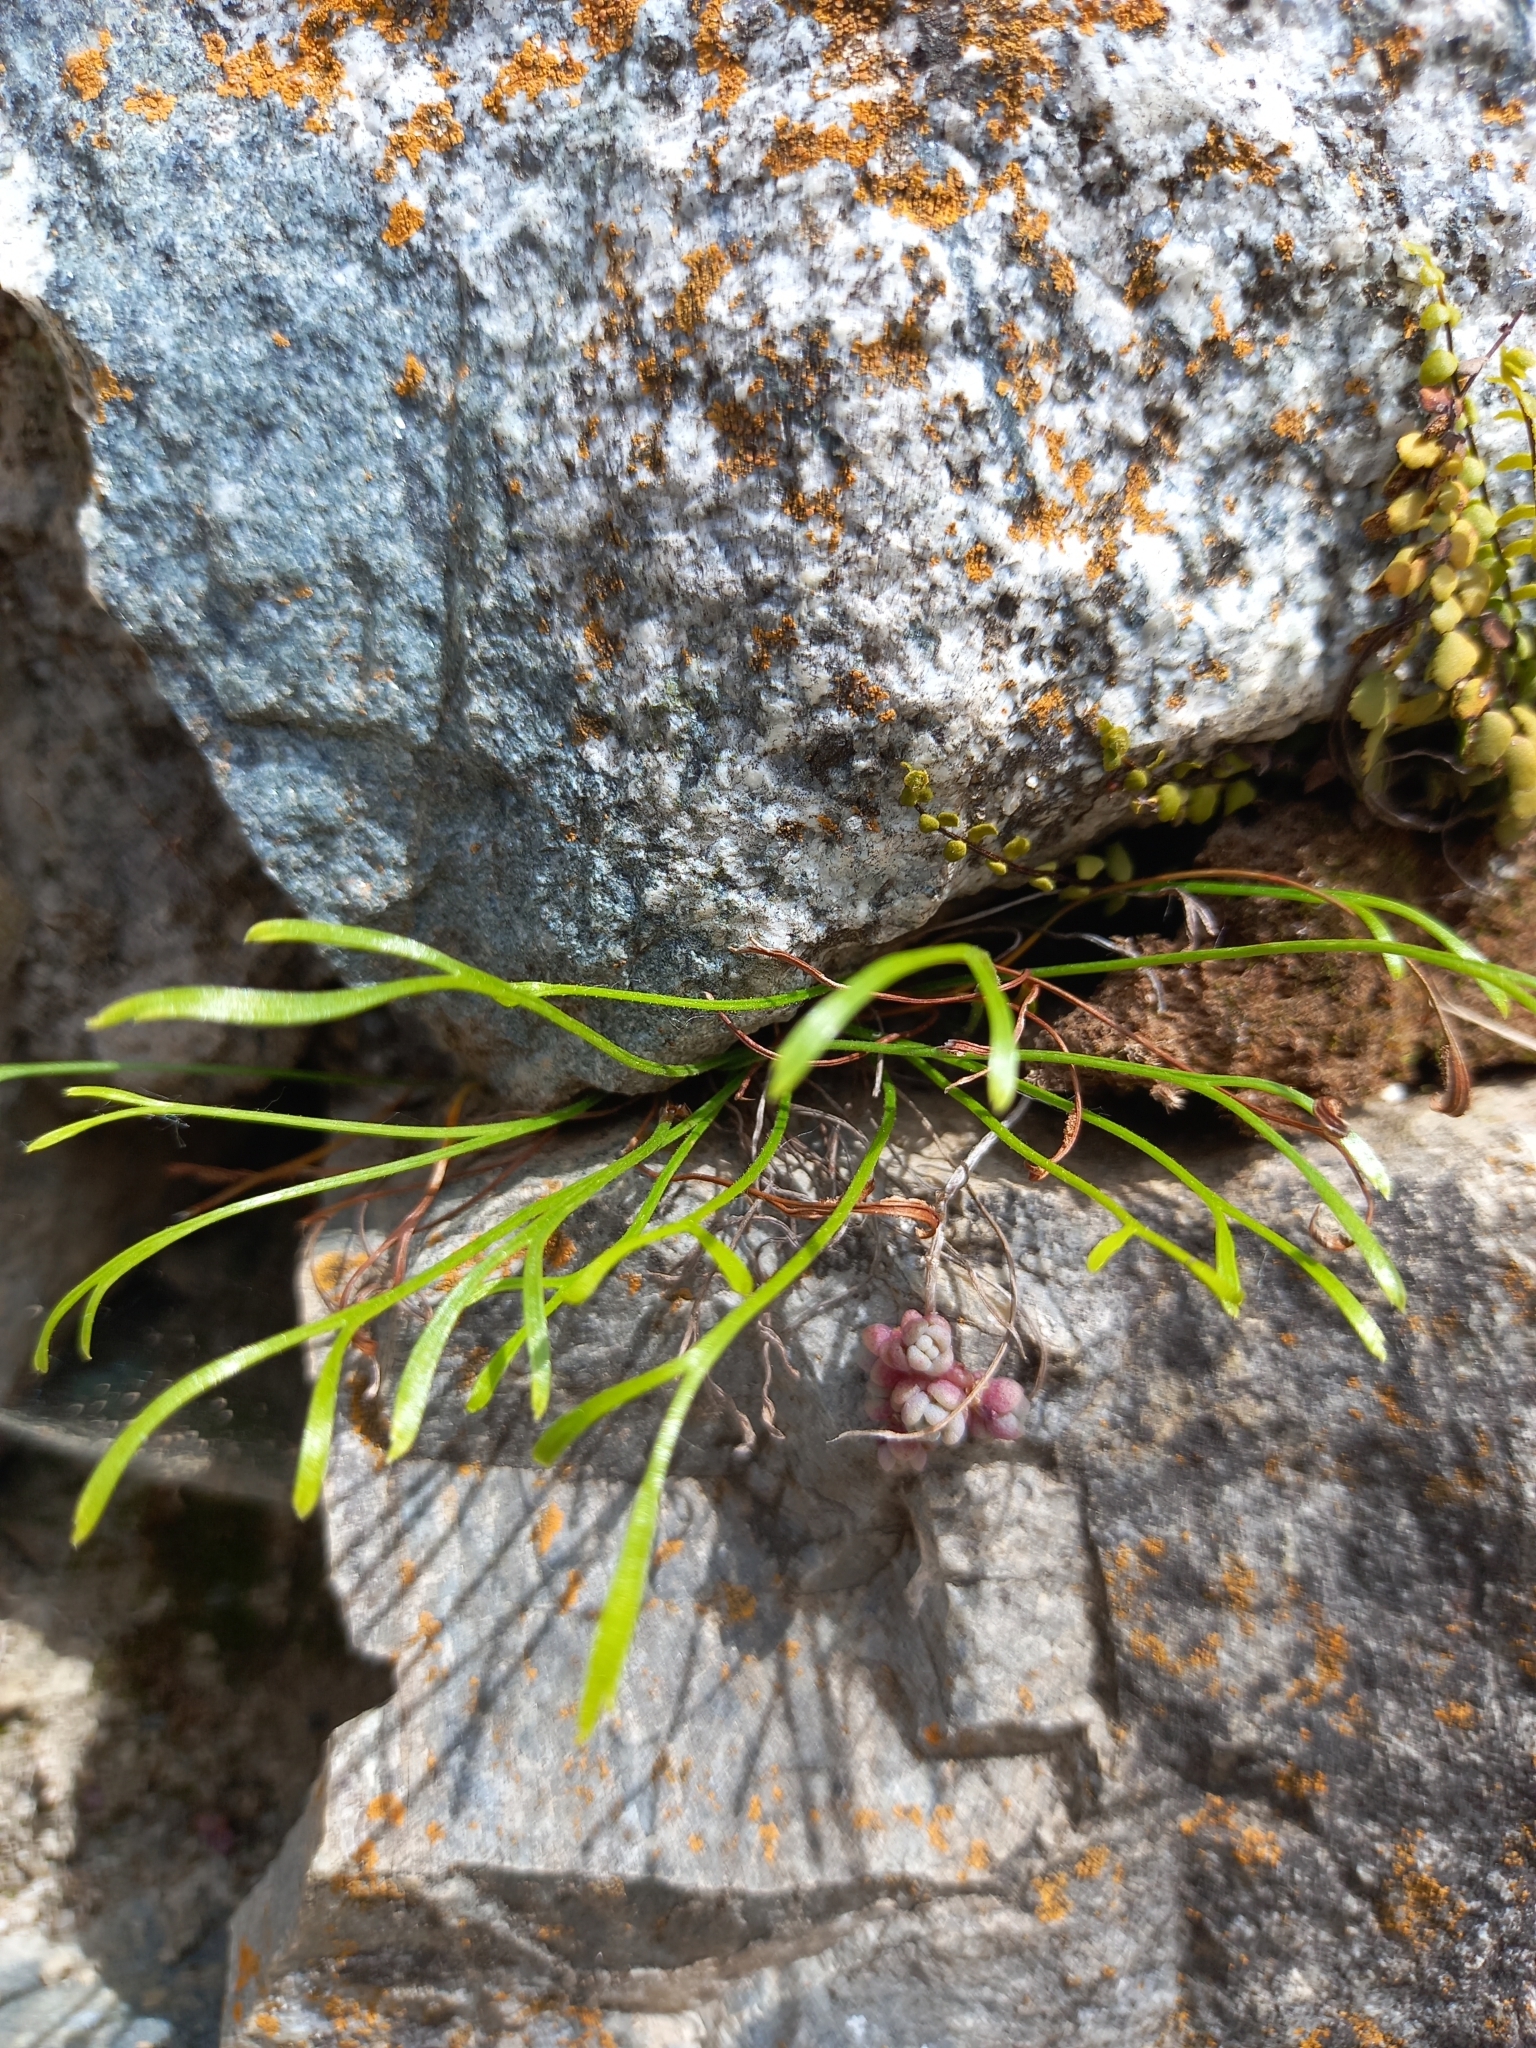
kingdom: Plantae
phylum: Tracheophyta
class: Polypodiopsida
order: Polypodiales
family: Aspleniaceae
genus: Asplenium
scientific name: Asplenium septentrionale
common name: Forked spleenwort
